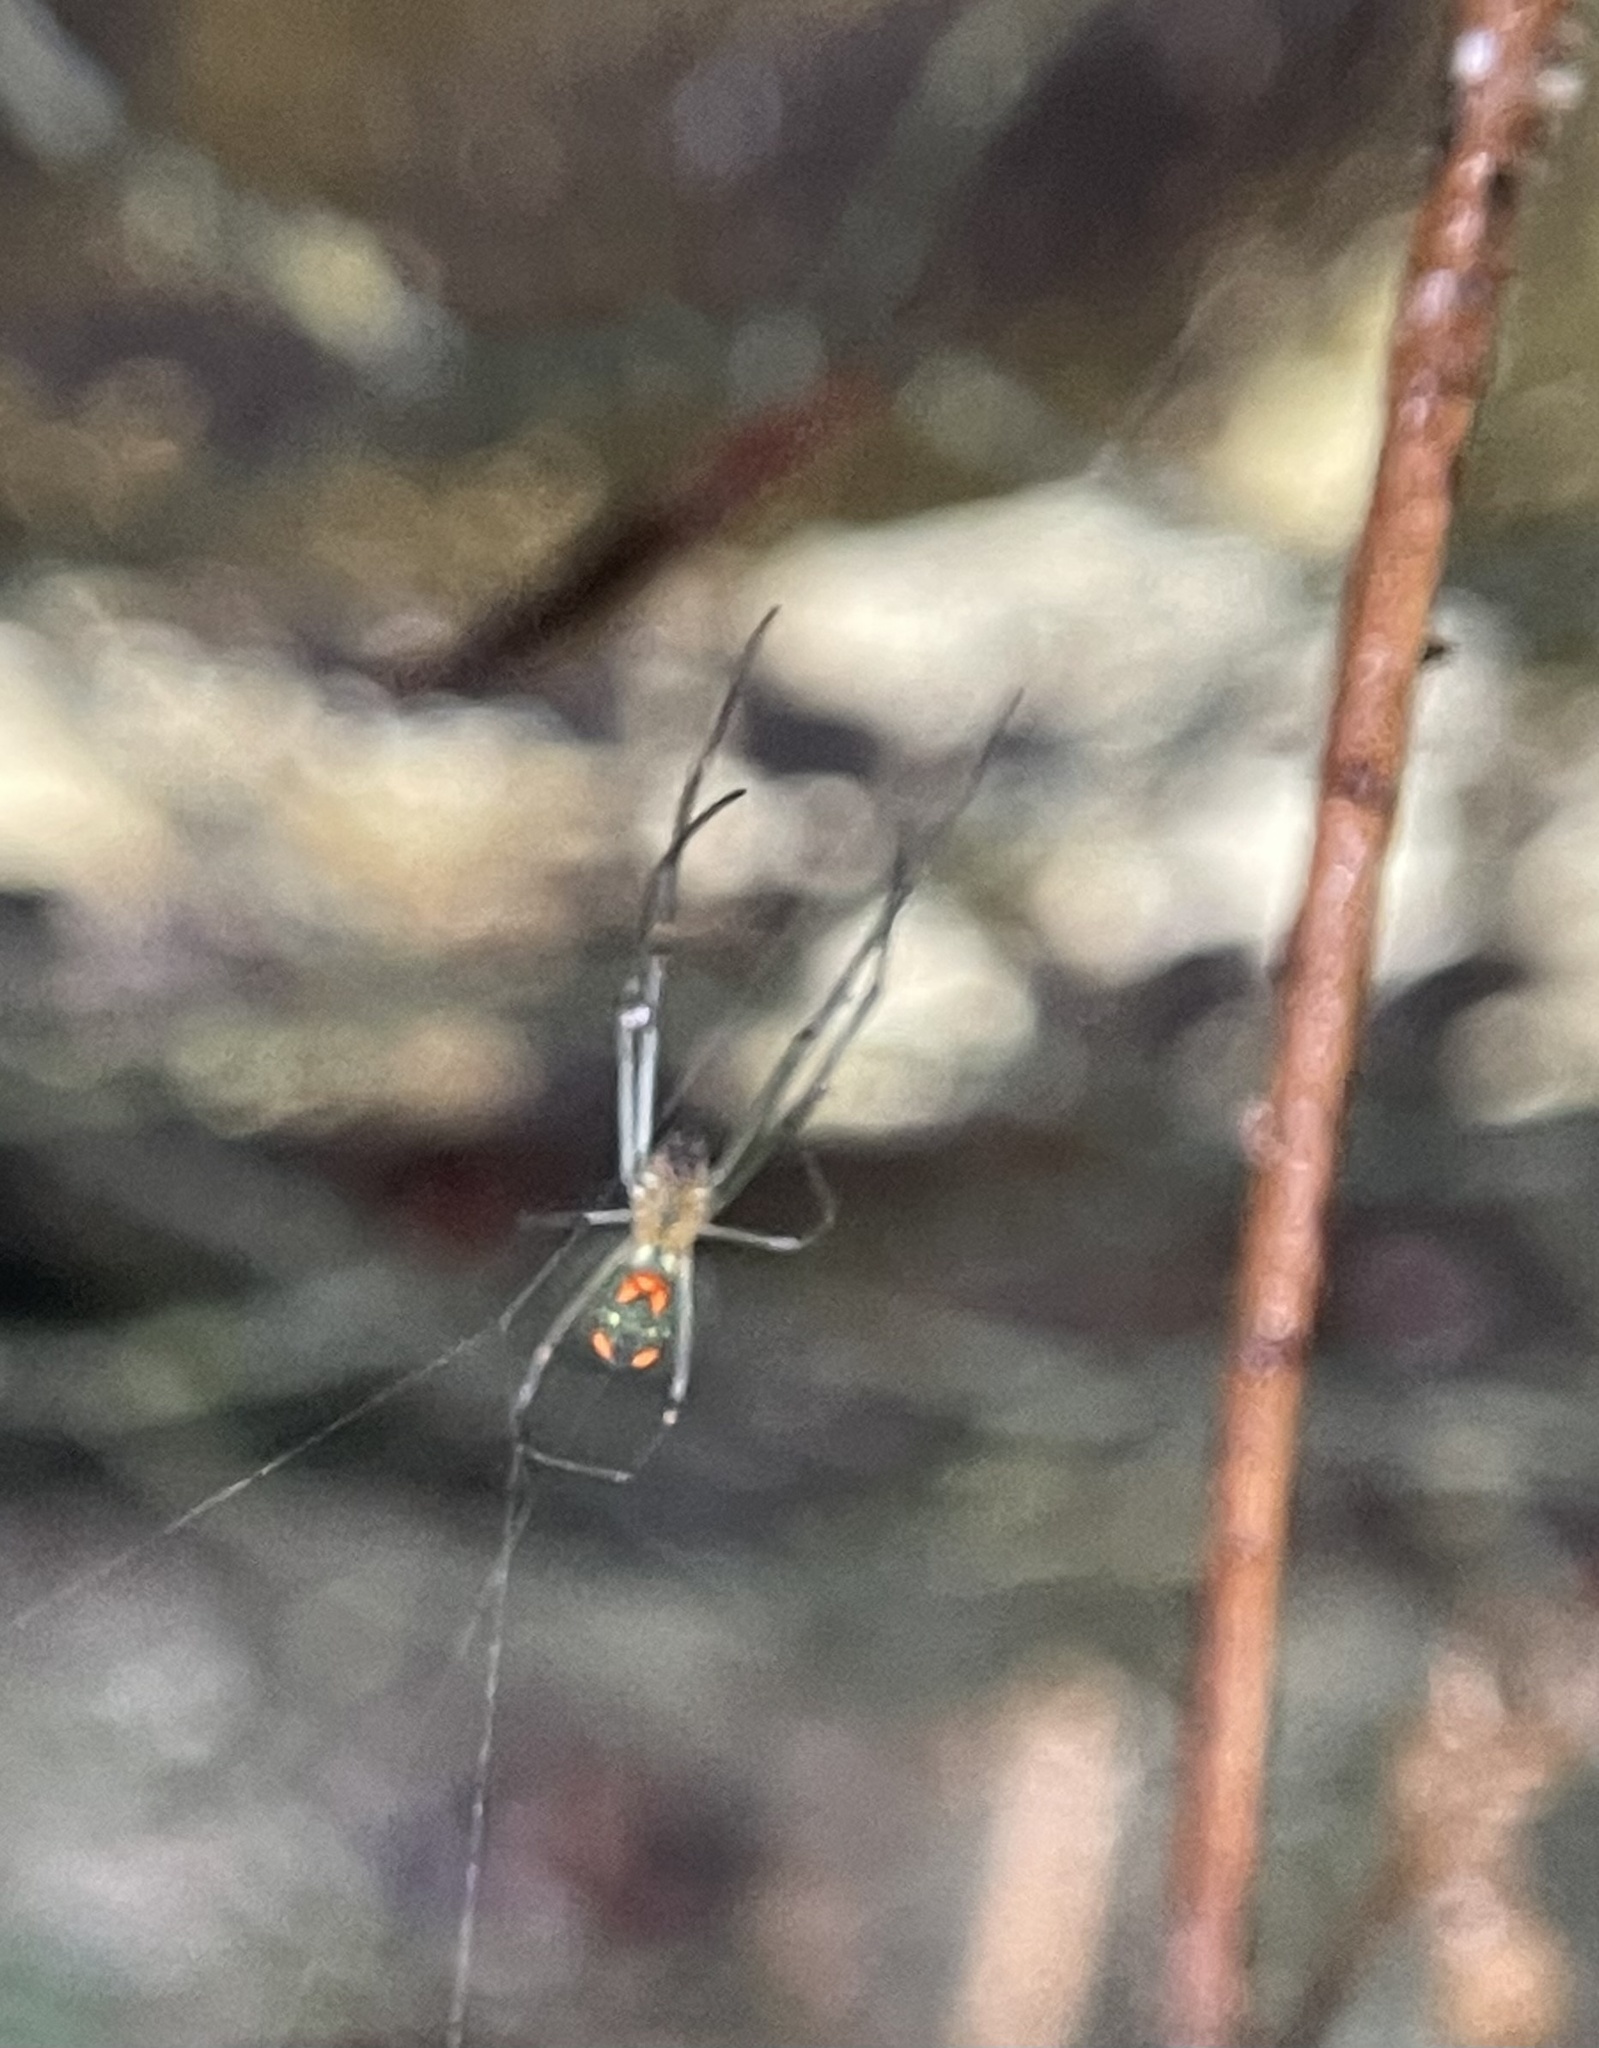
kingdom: Animalia
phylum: Arthropoda
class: Arachnida
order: Araneae
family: Tetragnathidae
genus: Leucauge
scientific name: Leucauge argyrobapta
